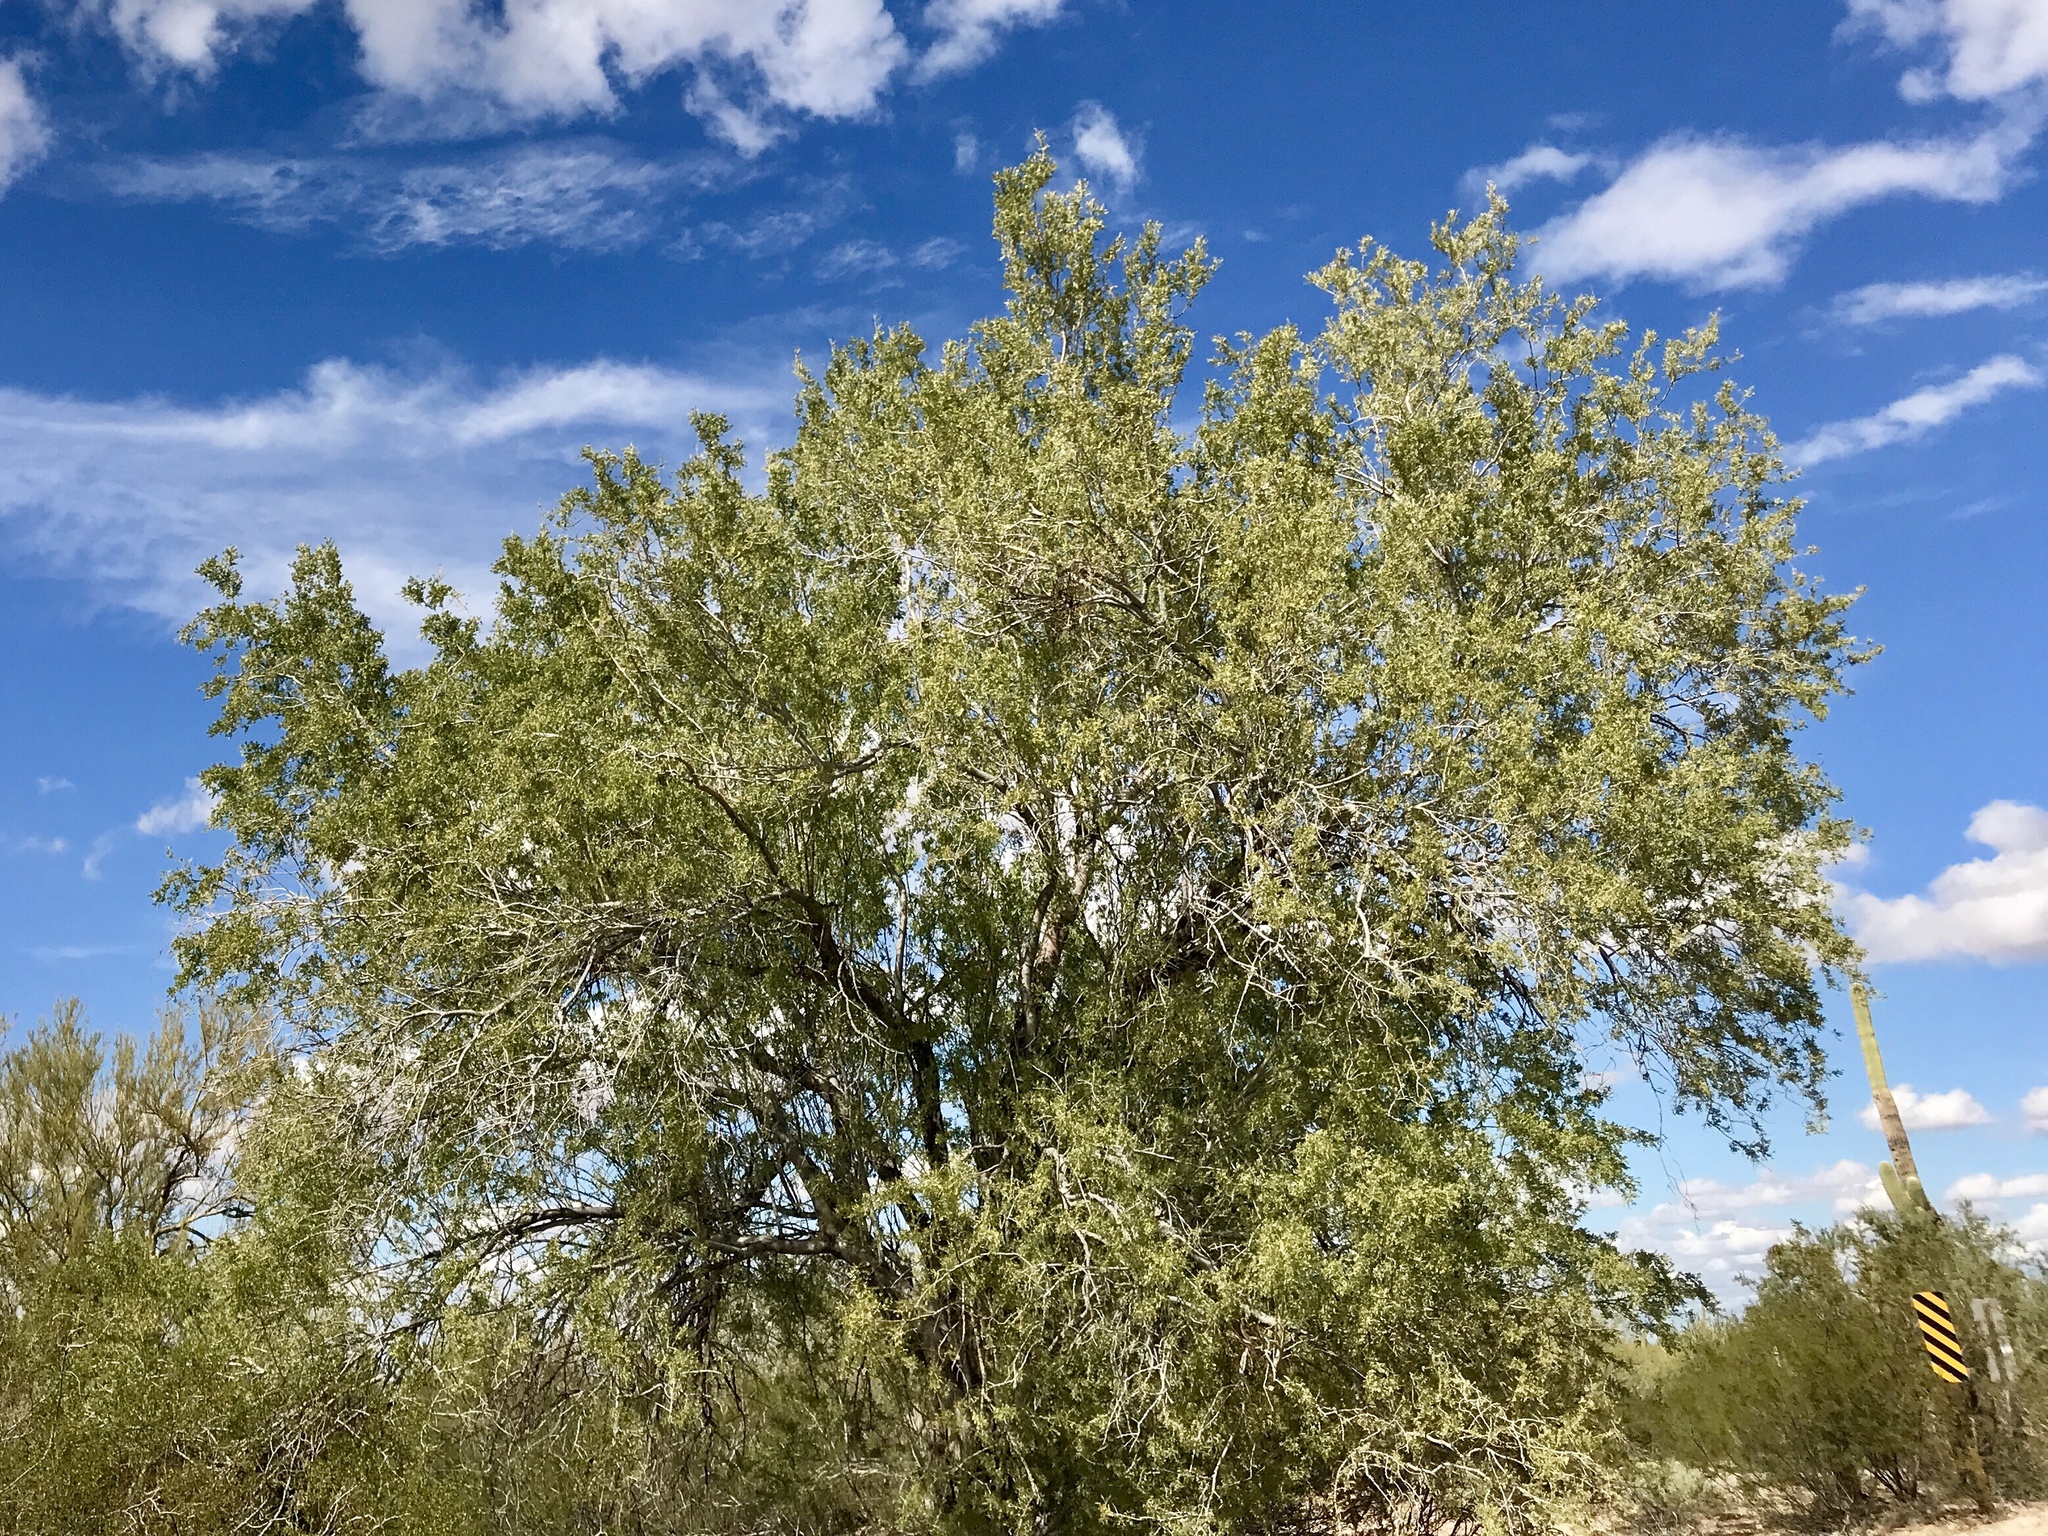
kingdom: Plantae
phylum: Tracheophyta
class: Magnoliopsida
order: Fabales
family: Fabaceae
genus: Olneya
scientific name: Olneya tesota
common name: Desert ironwood
